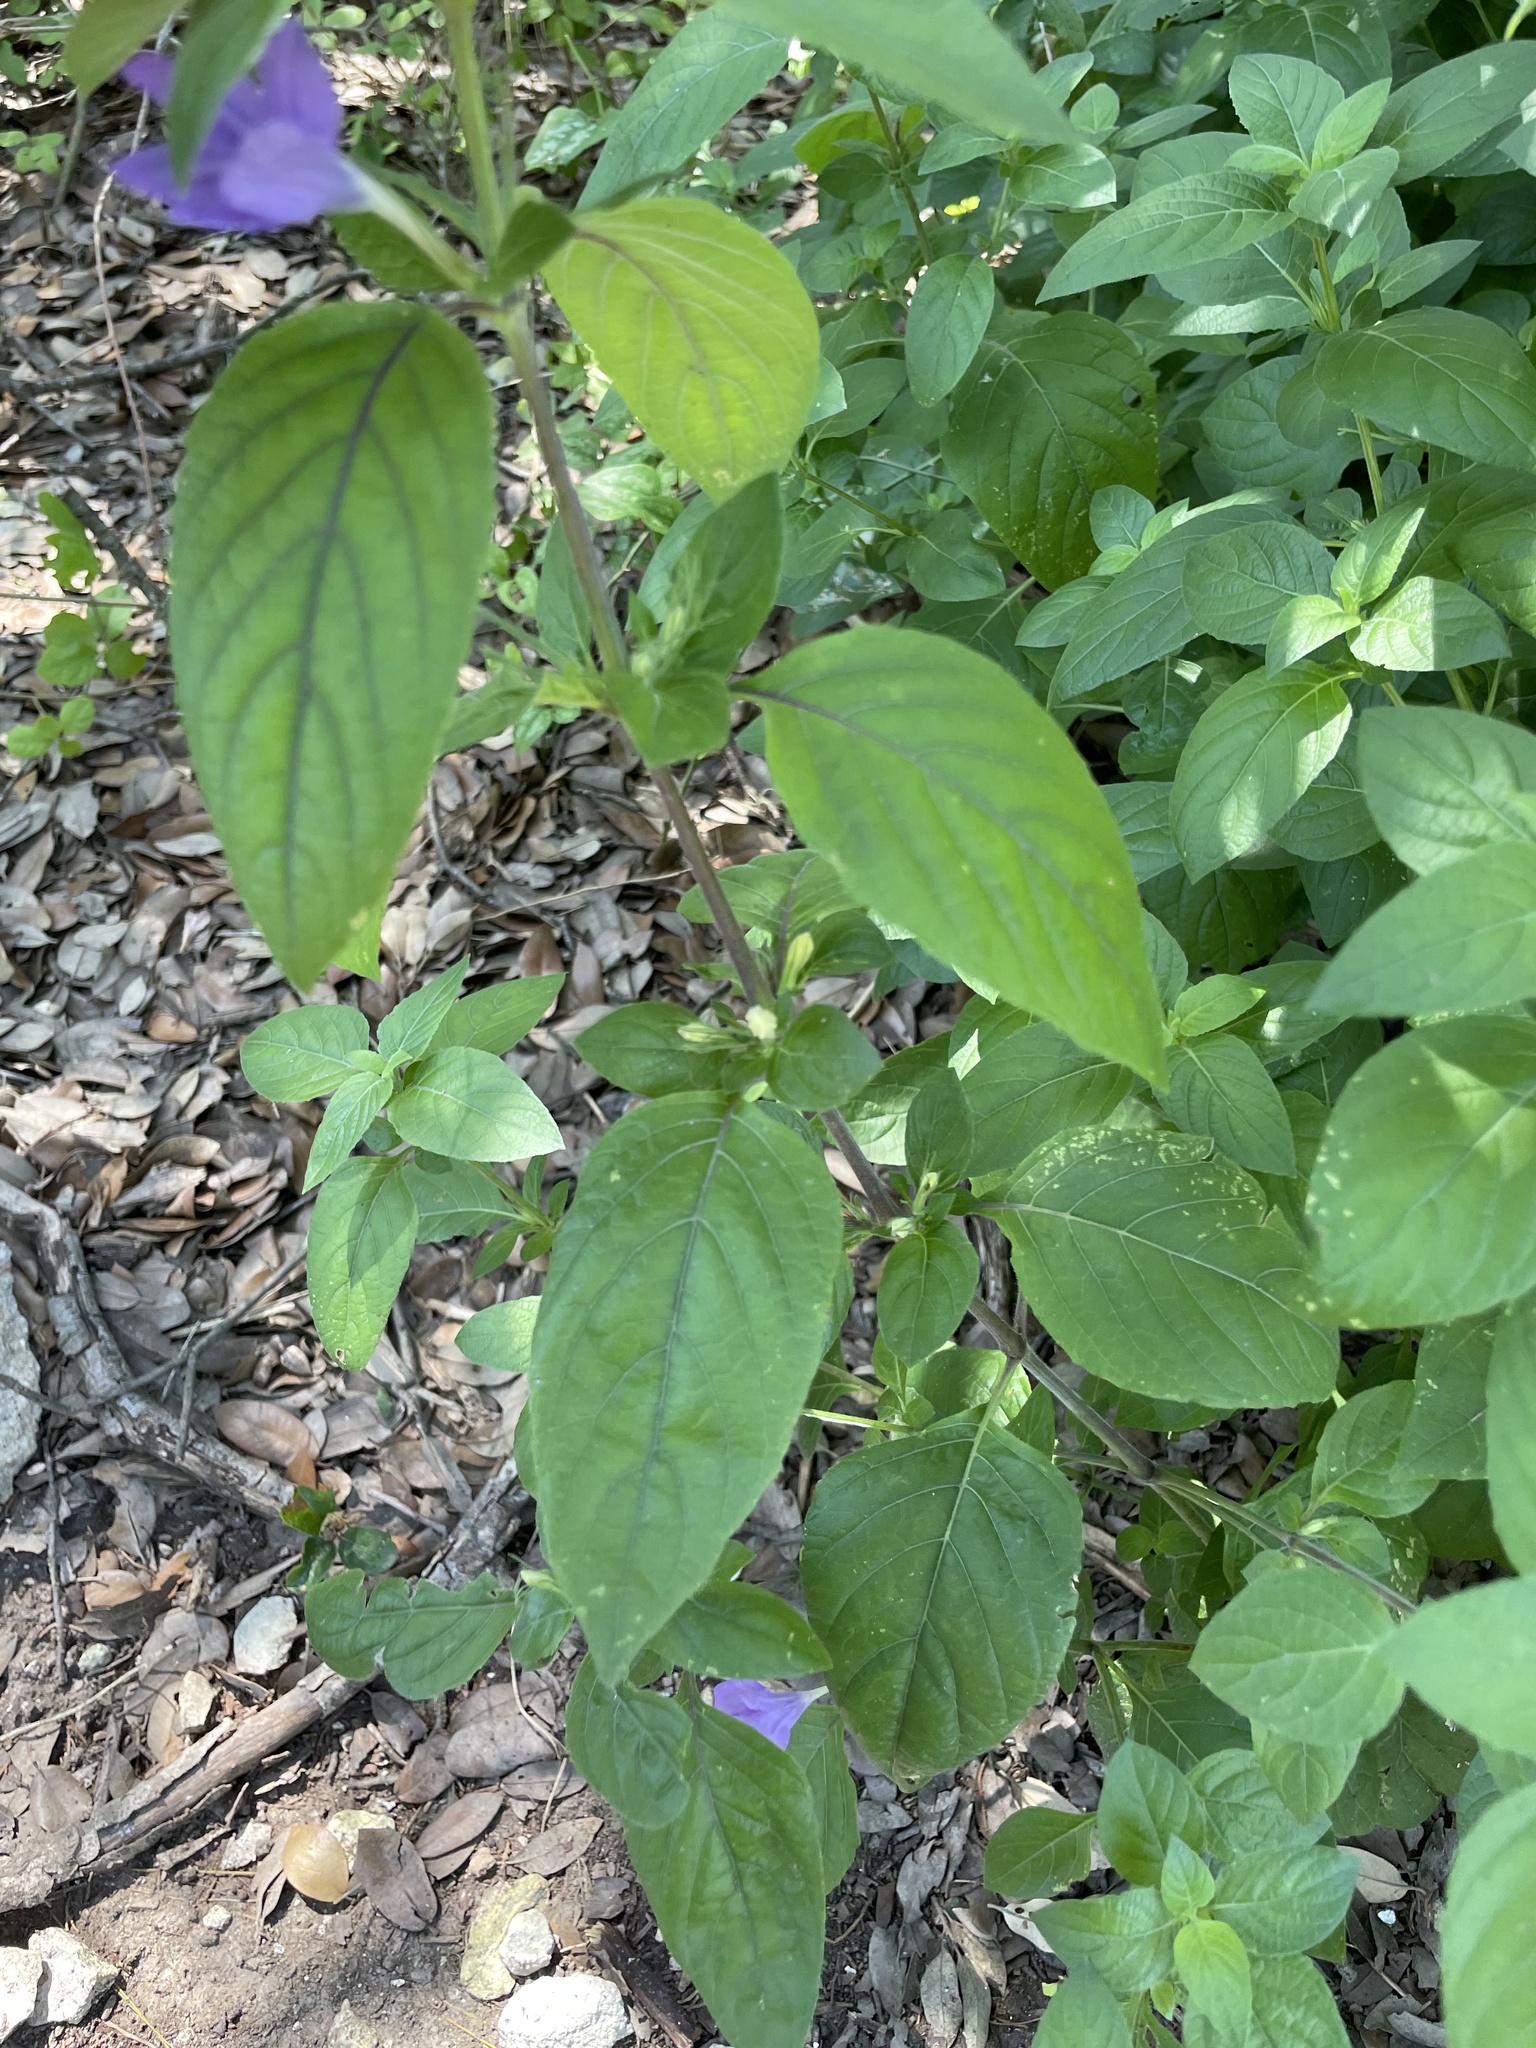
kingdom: Plantae
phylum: Tracheophyta
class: Magnoliopsida
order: Lamiales
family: Acanthaceae
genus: Ruellia
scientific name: Ruellia drummondiana
